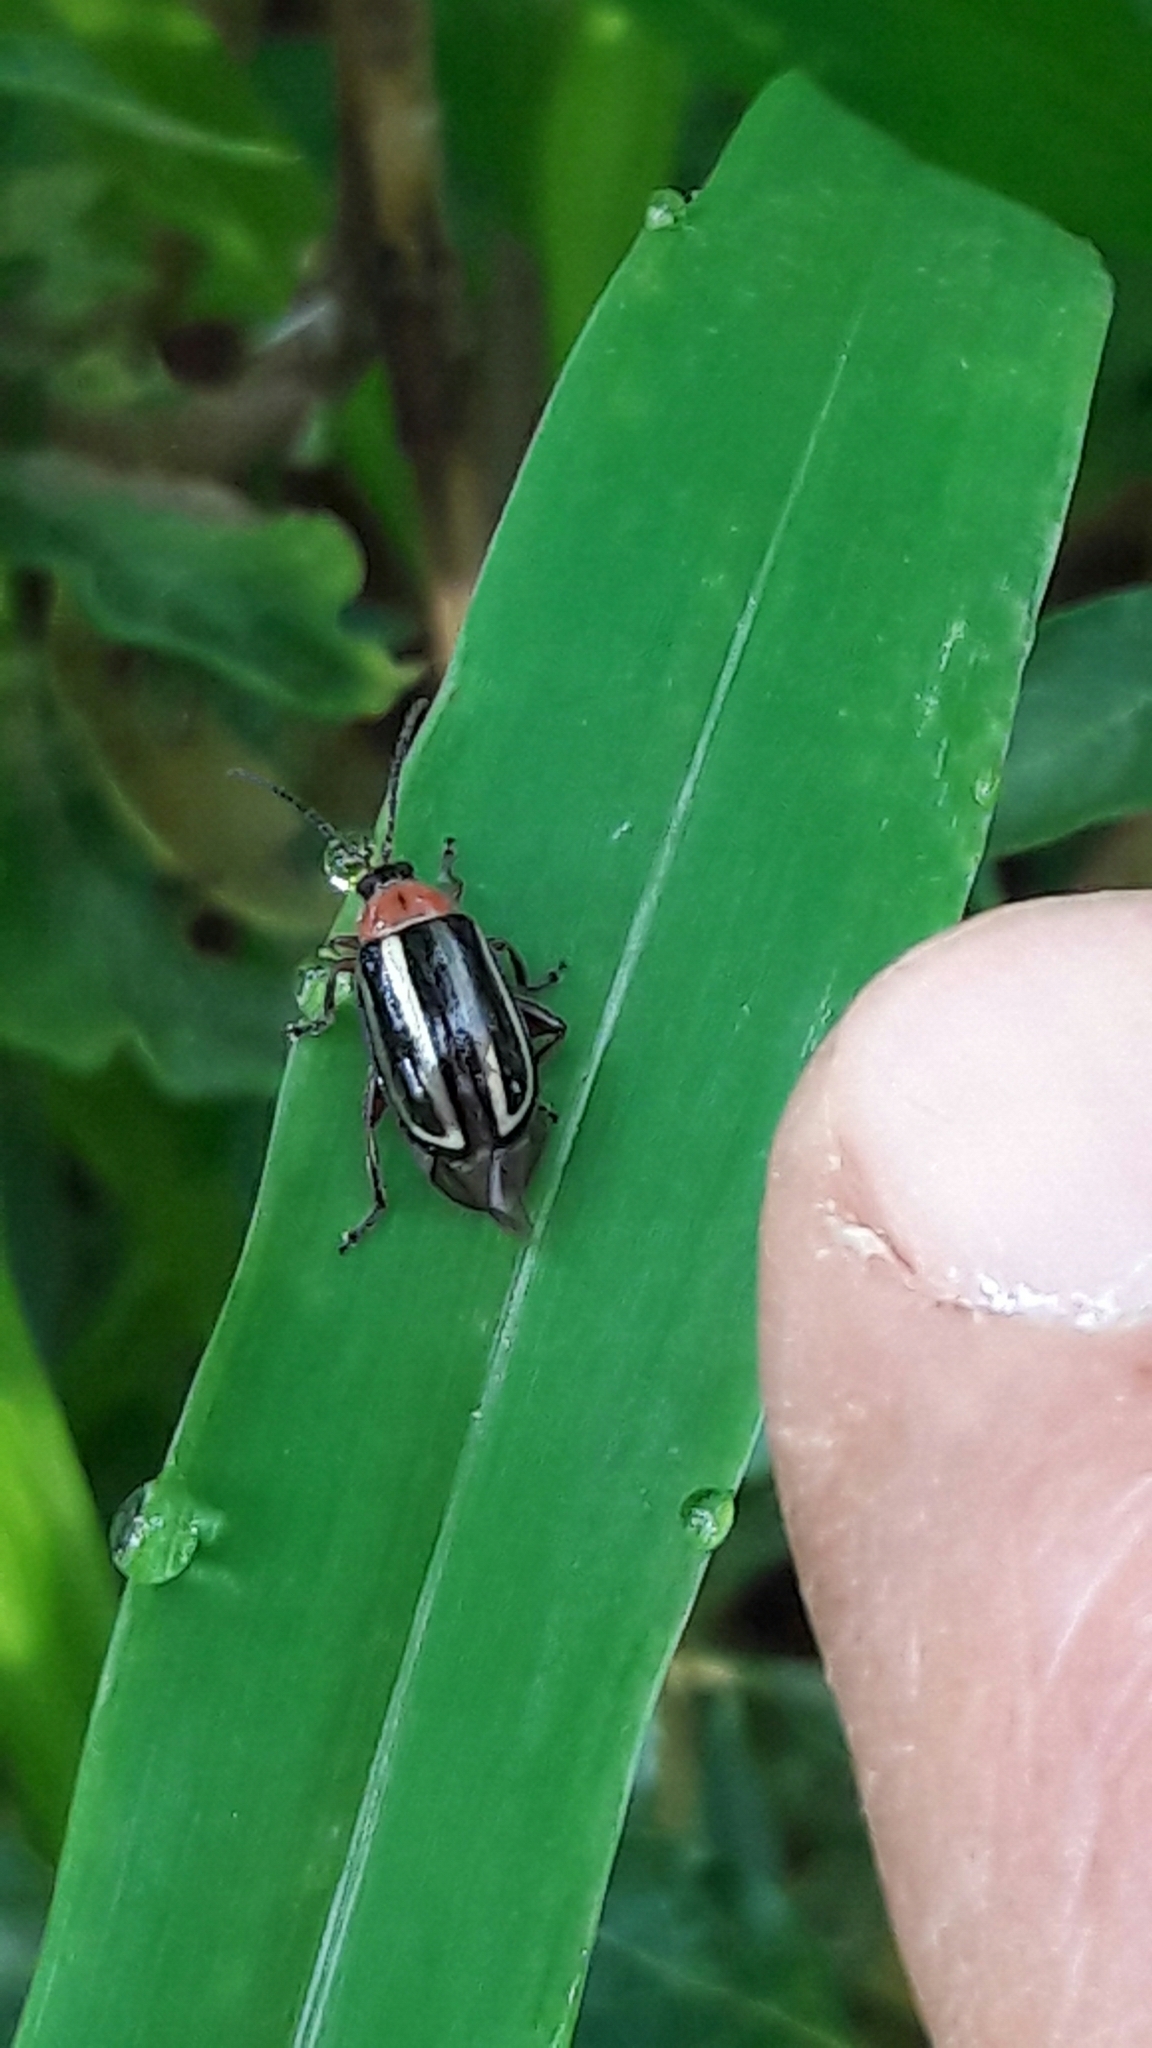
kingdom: Animalia
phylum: Arthropoda
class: Insecta
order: Coleoptera
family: Chrysomelidae
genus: Disonycha
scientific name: Disonycha glabrata
